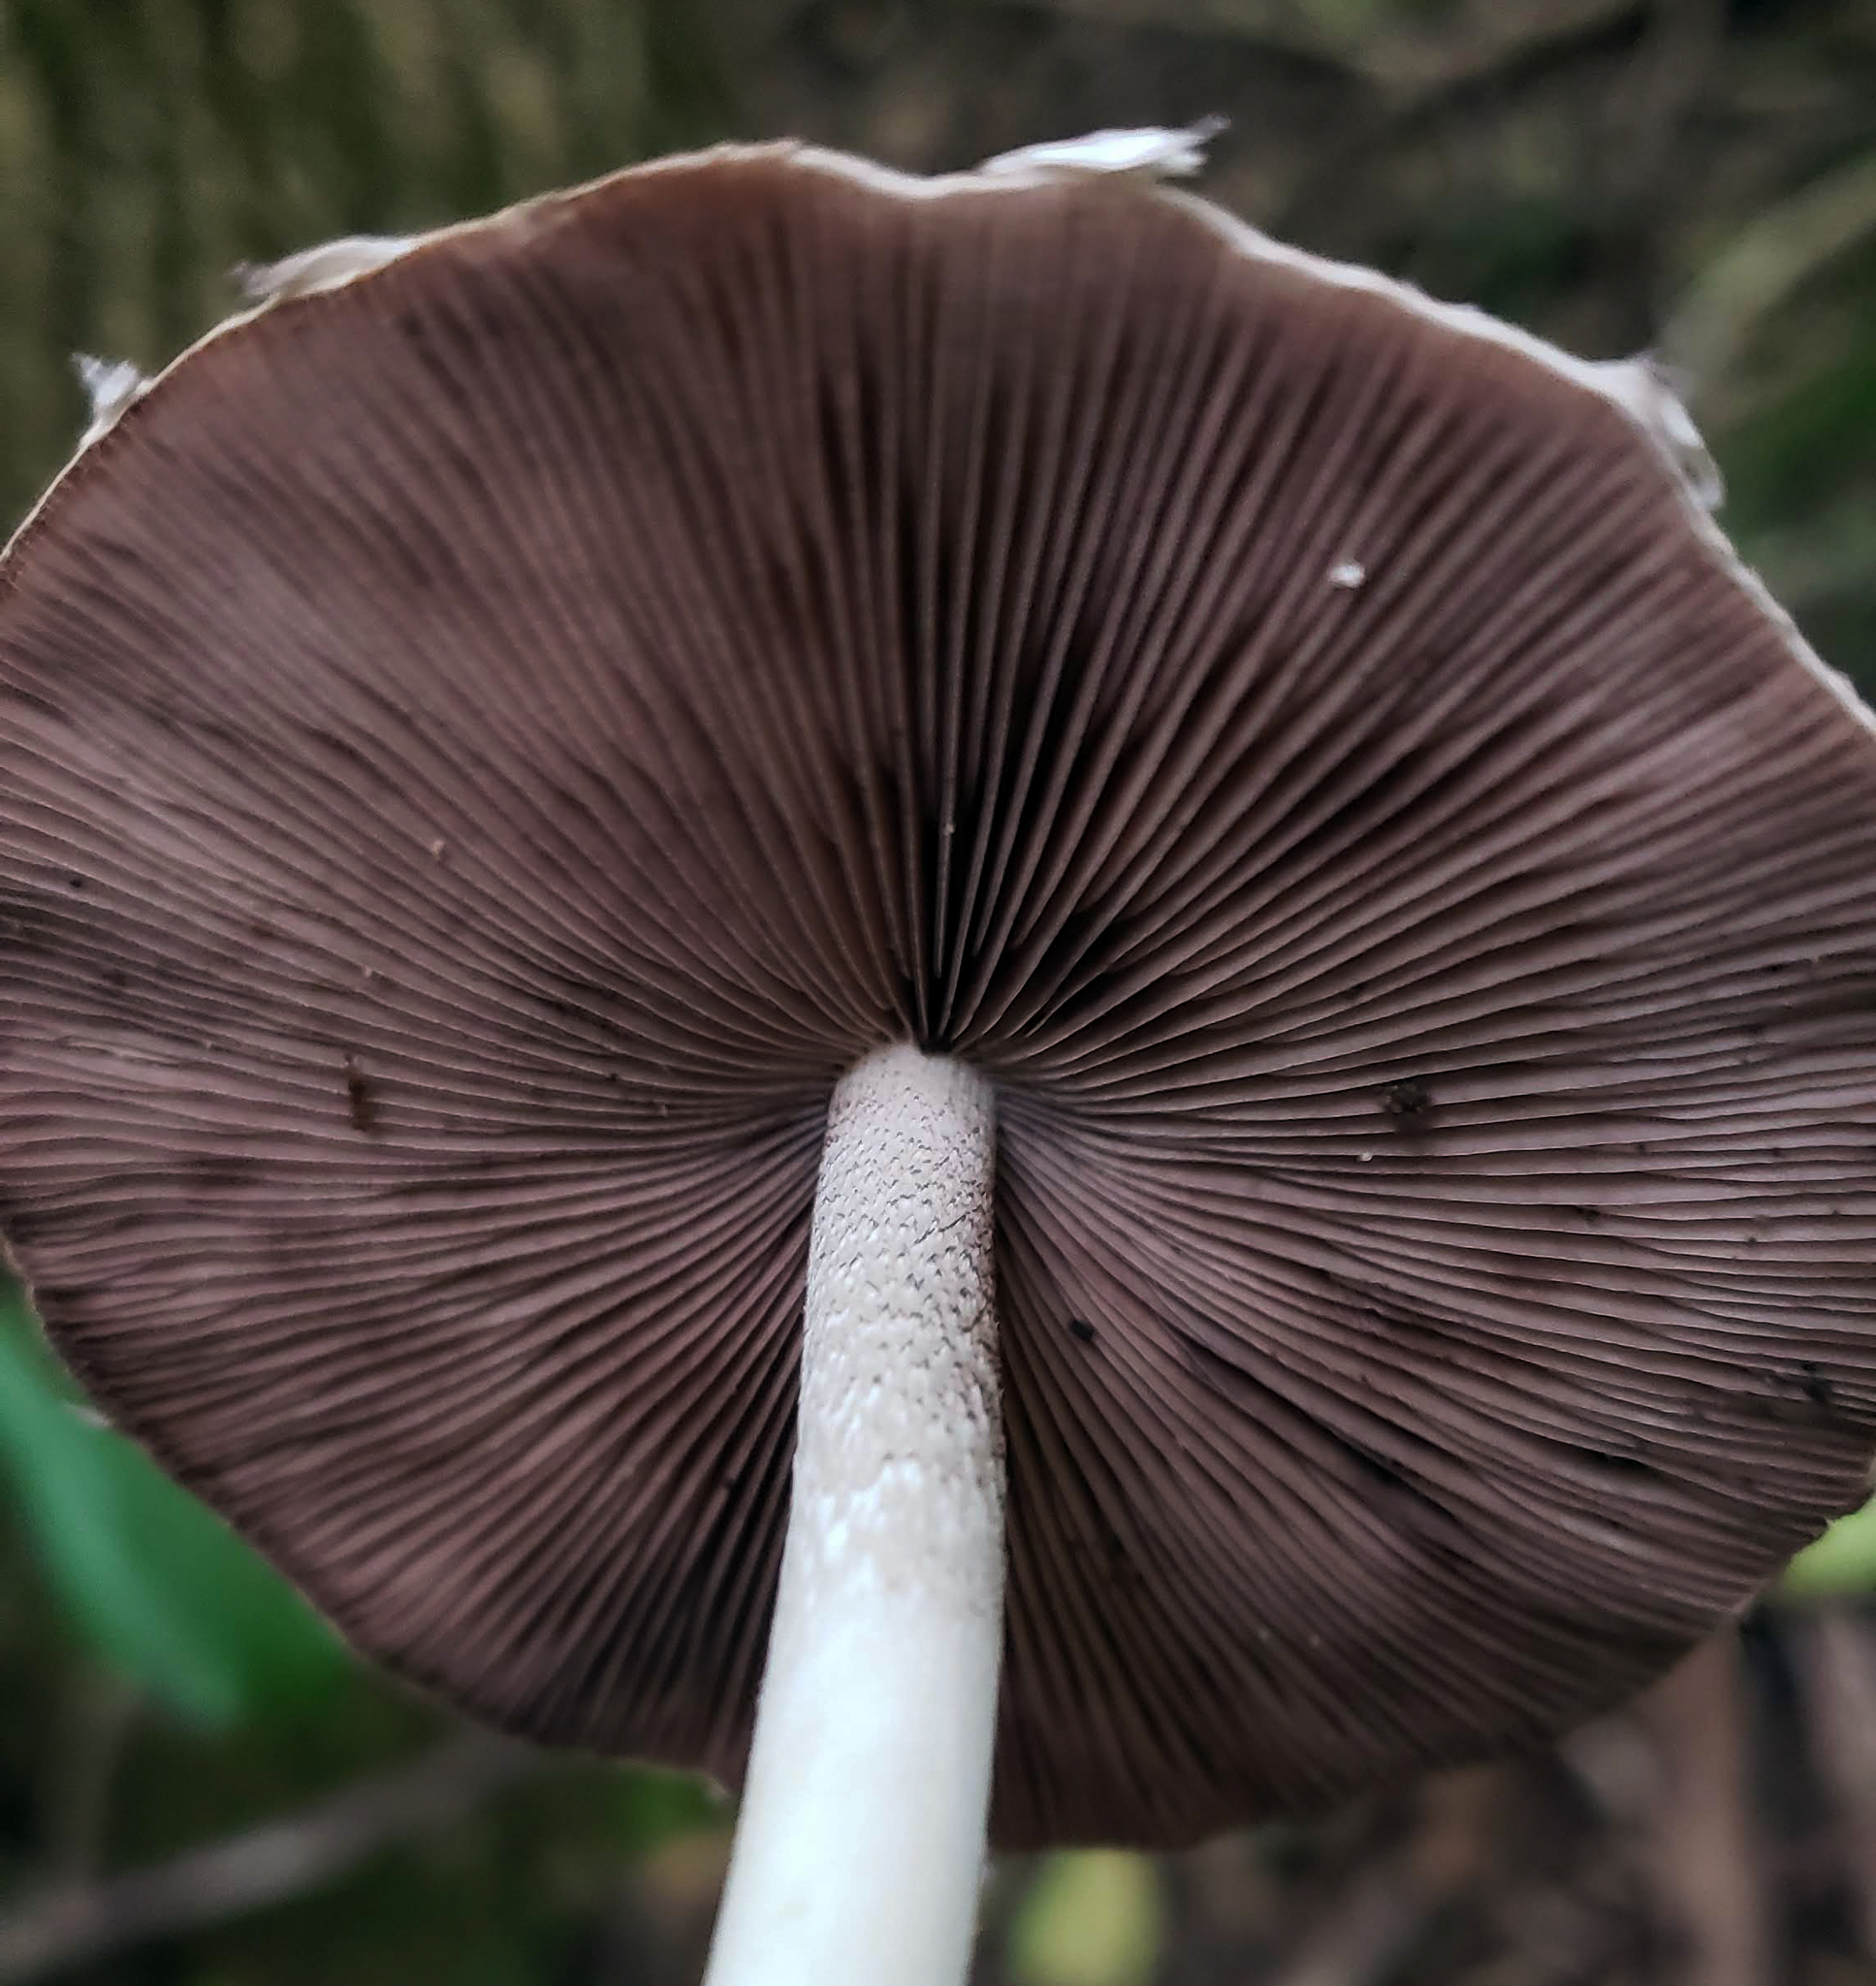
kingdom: Fungi
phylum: Basidiomycota
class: Agaricomycetes
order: Agaricales
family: Psathyrellaceae
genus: Candolleomyces
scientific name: Candolleomyces candolleanus
